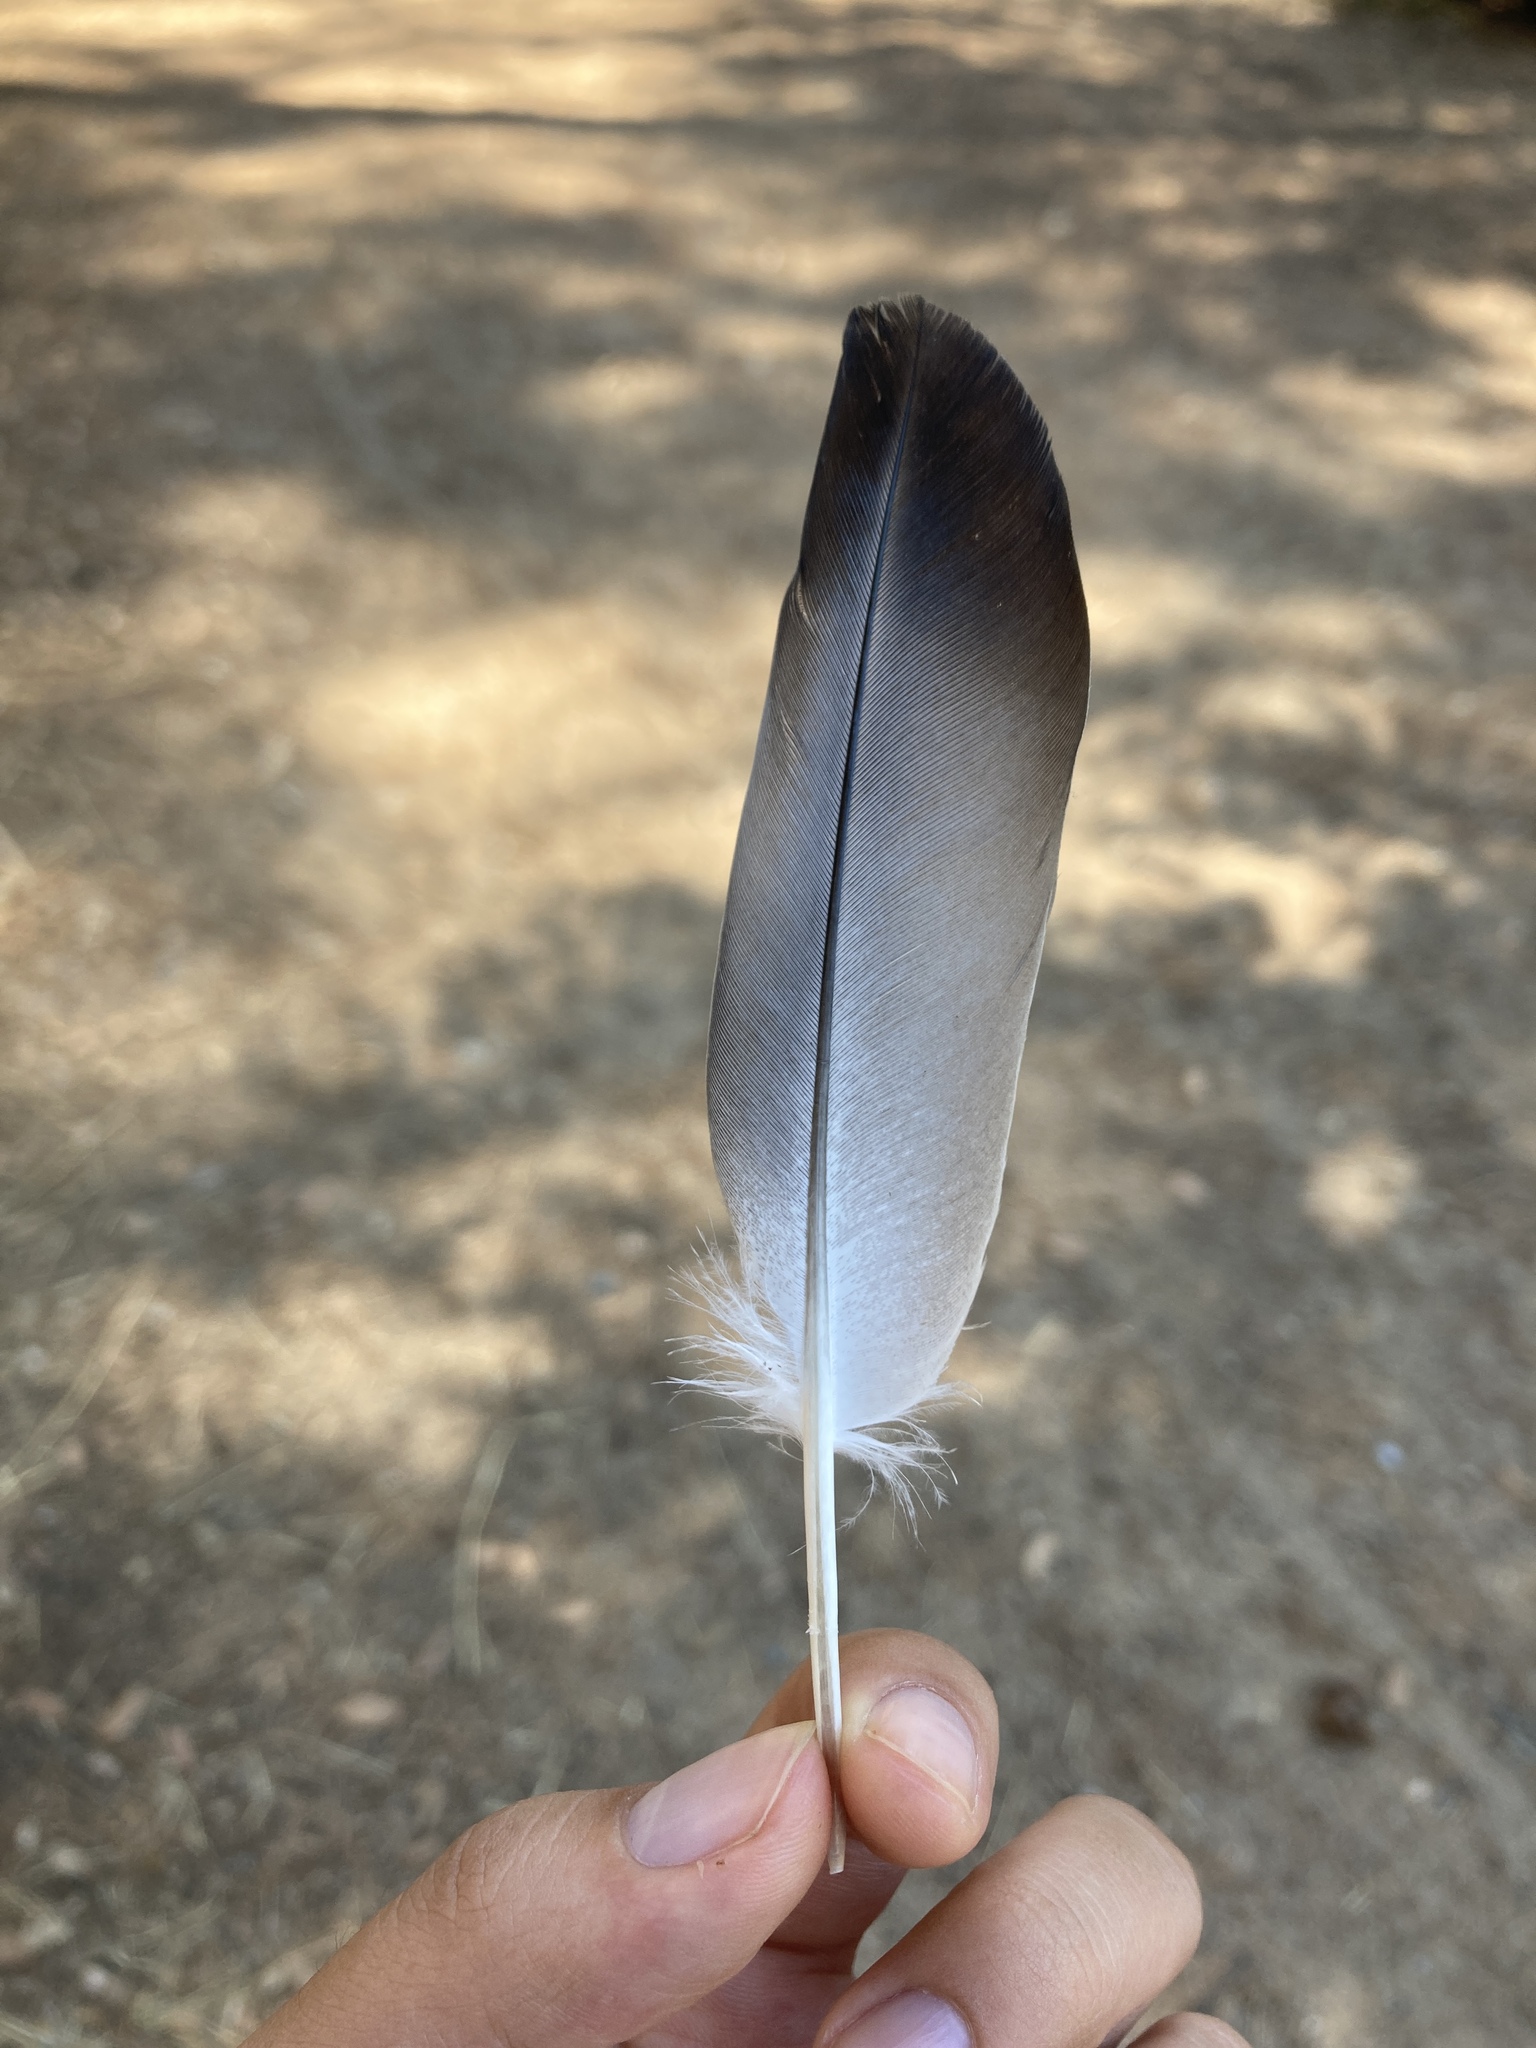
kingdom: Animalia
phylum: Chordata
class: Aves
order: Columbiformes
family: Columbidae
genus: Columba
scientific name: Columba livia
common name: Rock pigeon
